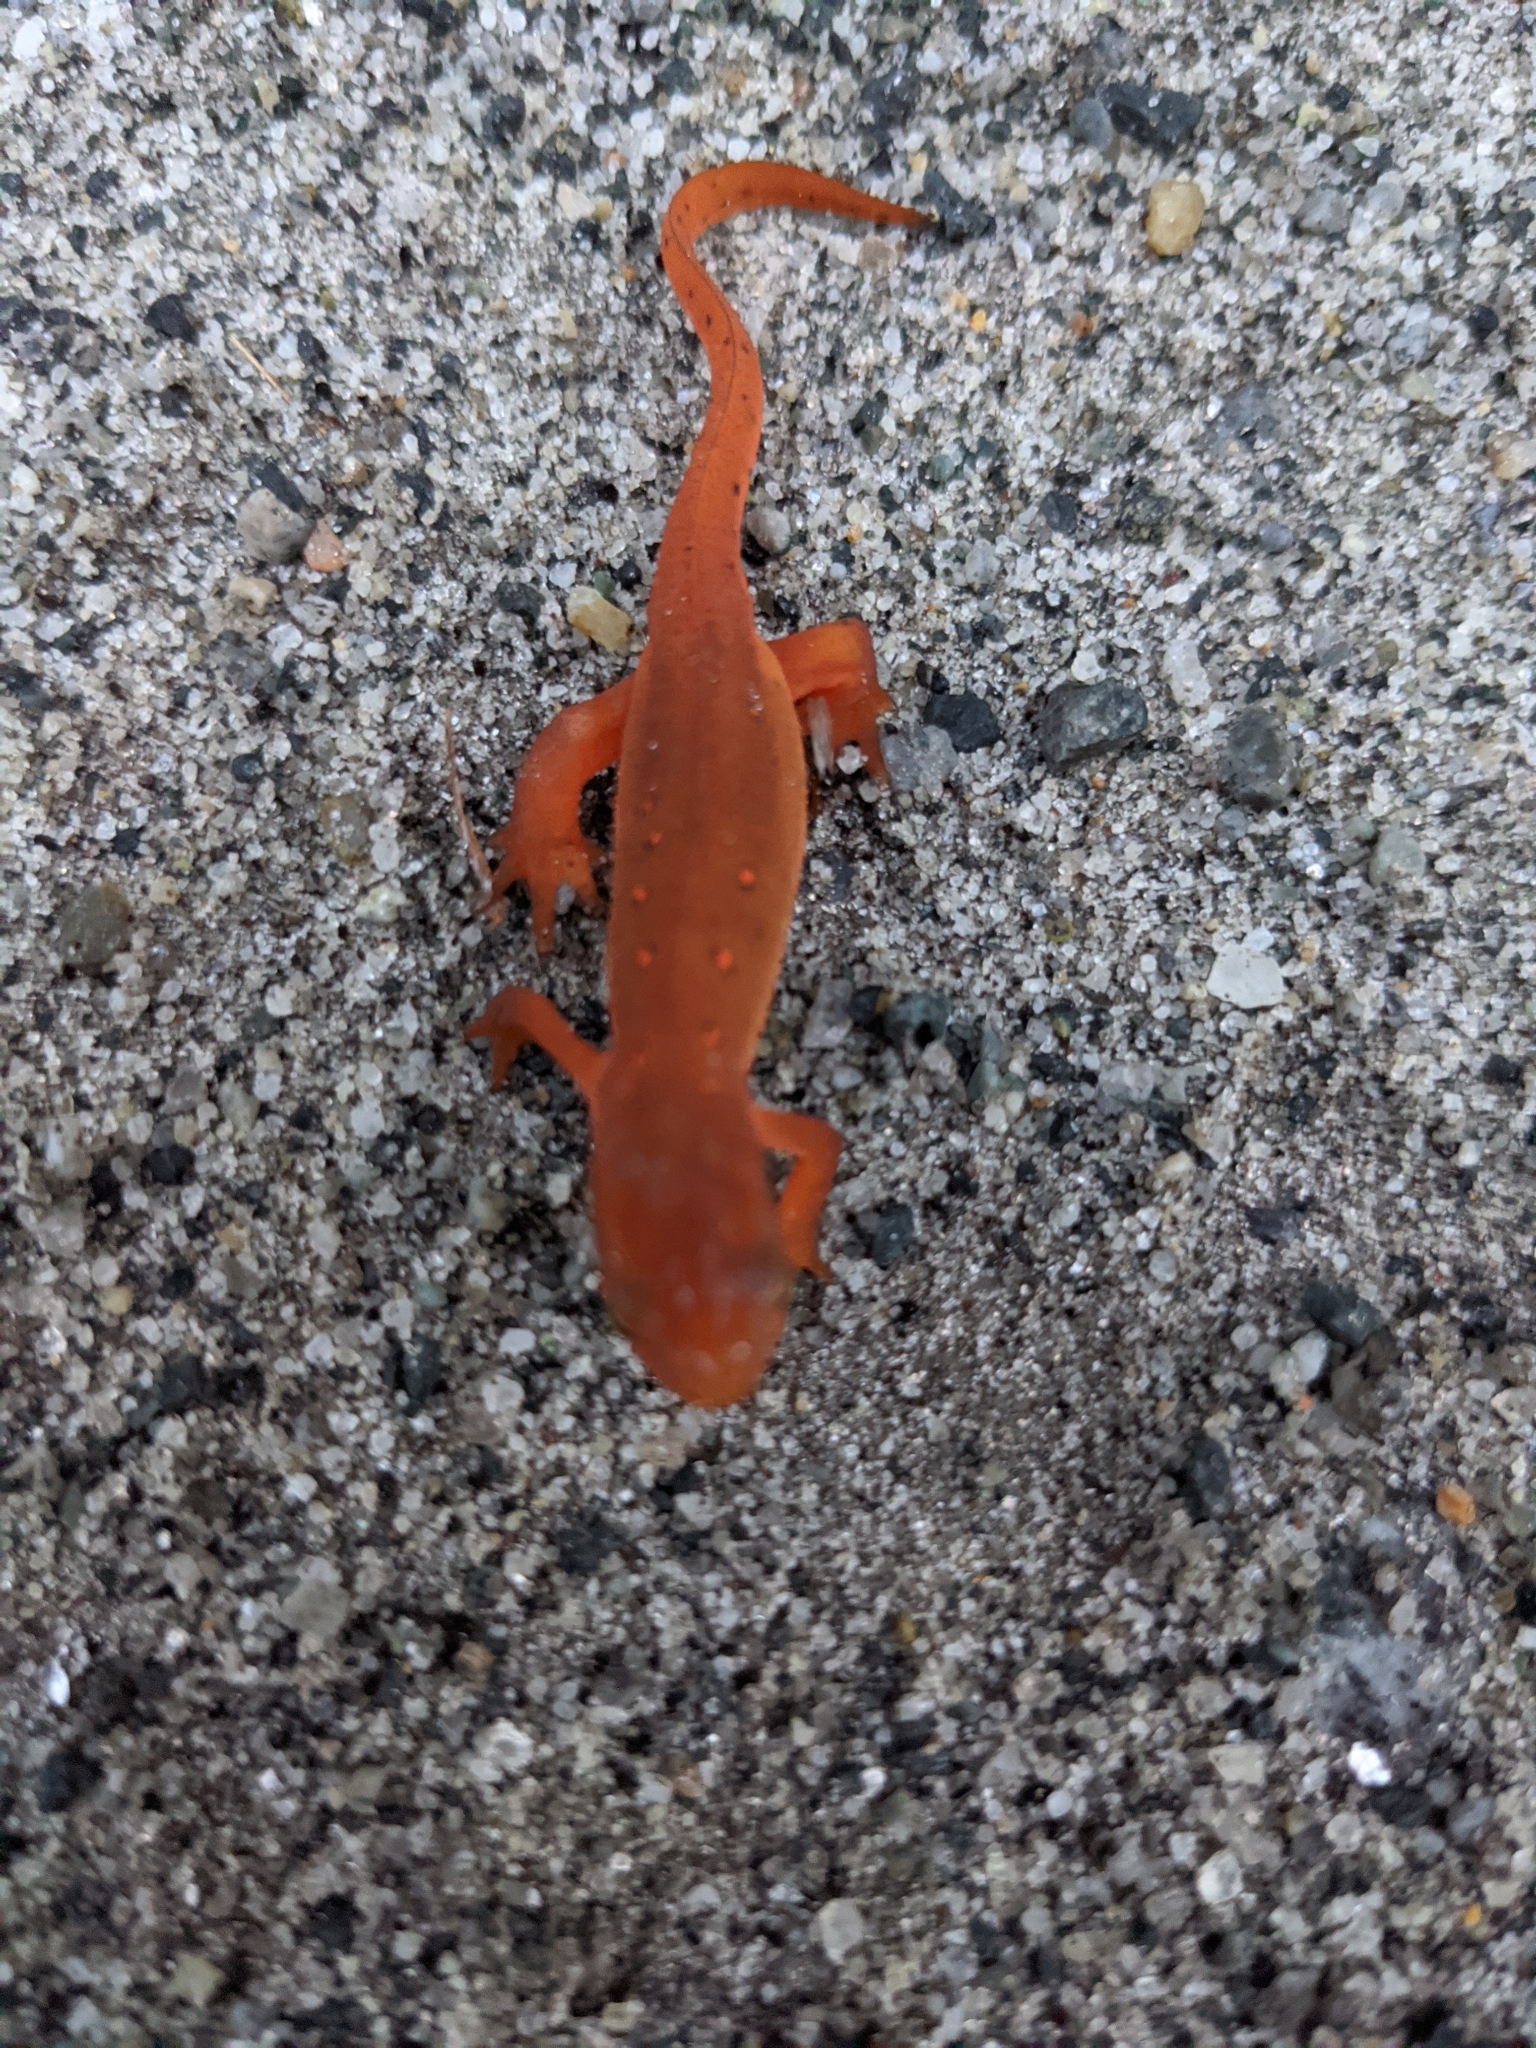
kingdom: Animalia
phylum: Chordata
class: Amphibia
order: Caudata
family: Salamandridae
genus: Notophthalmus
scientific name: Notophthalmus viridescens
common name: Eastern newt
